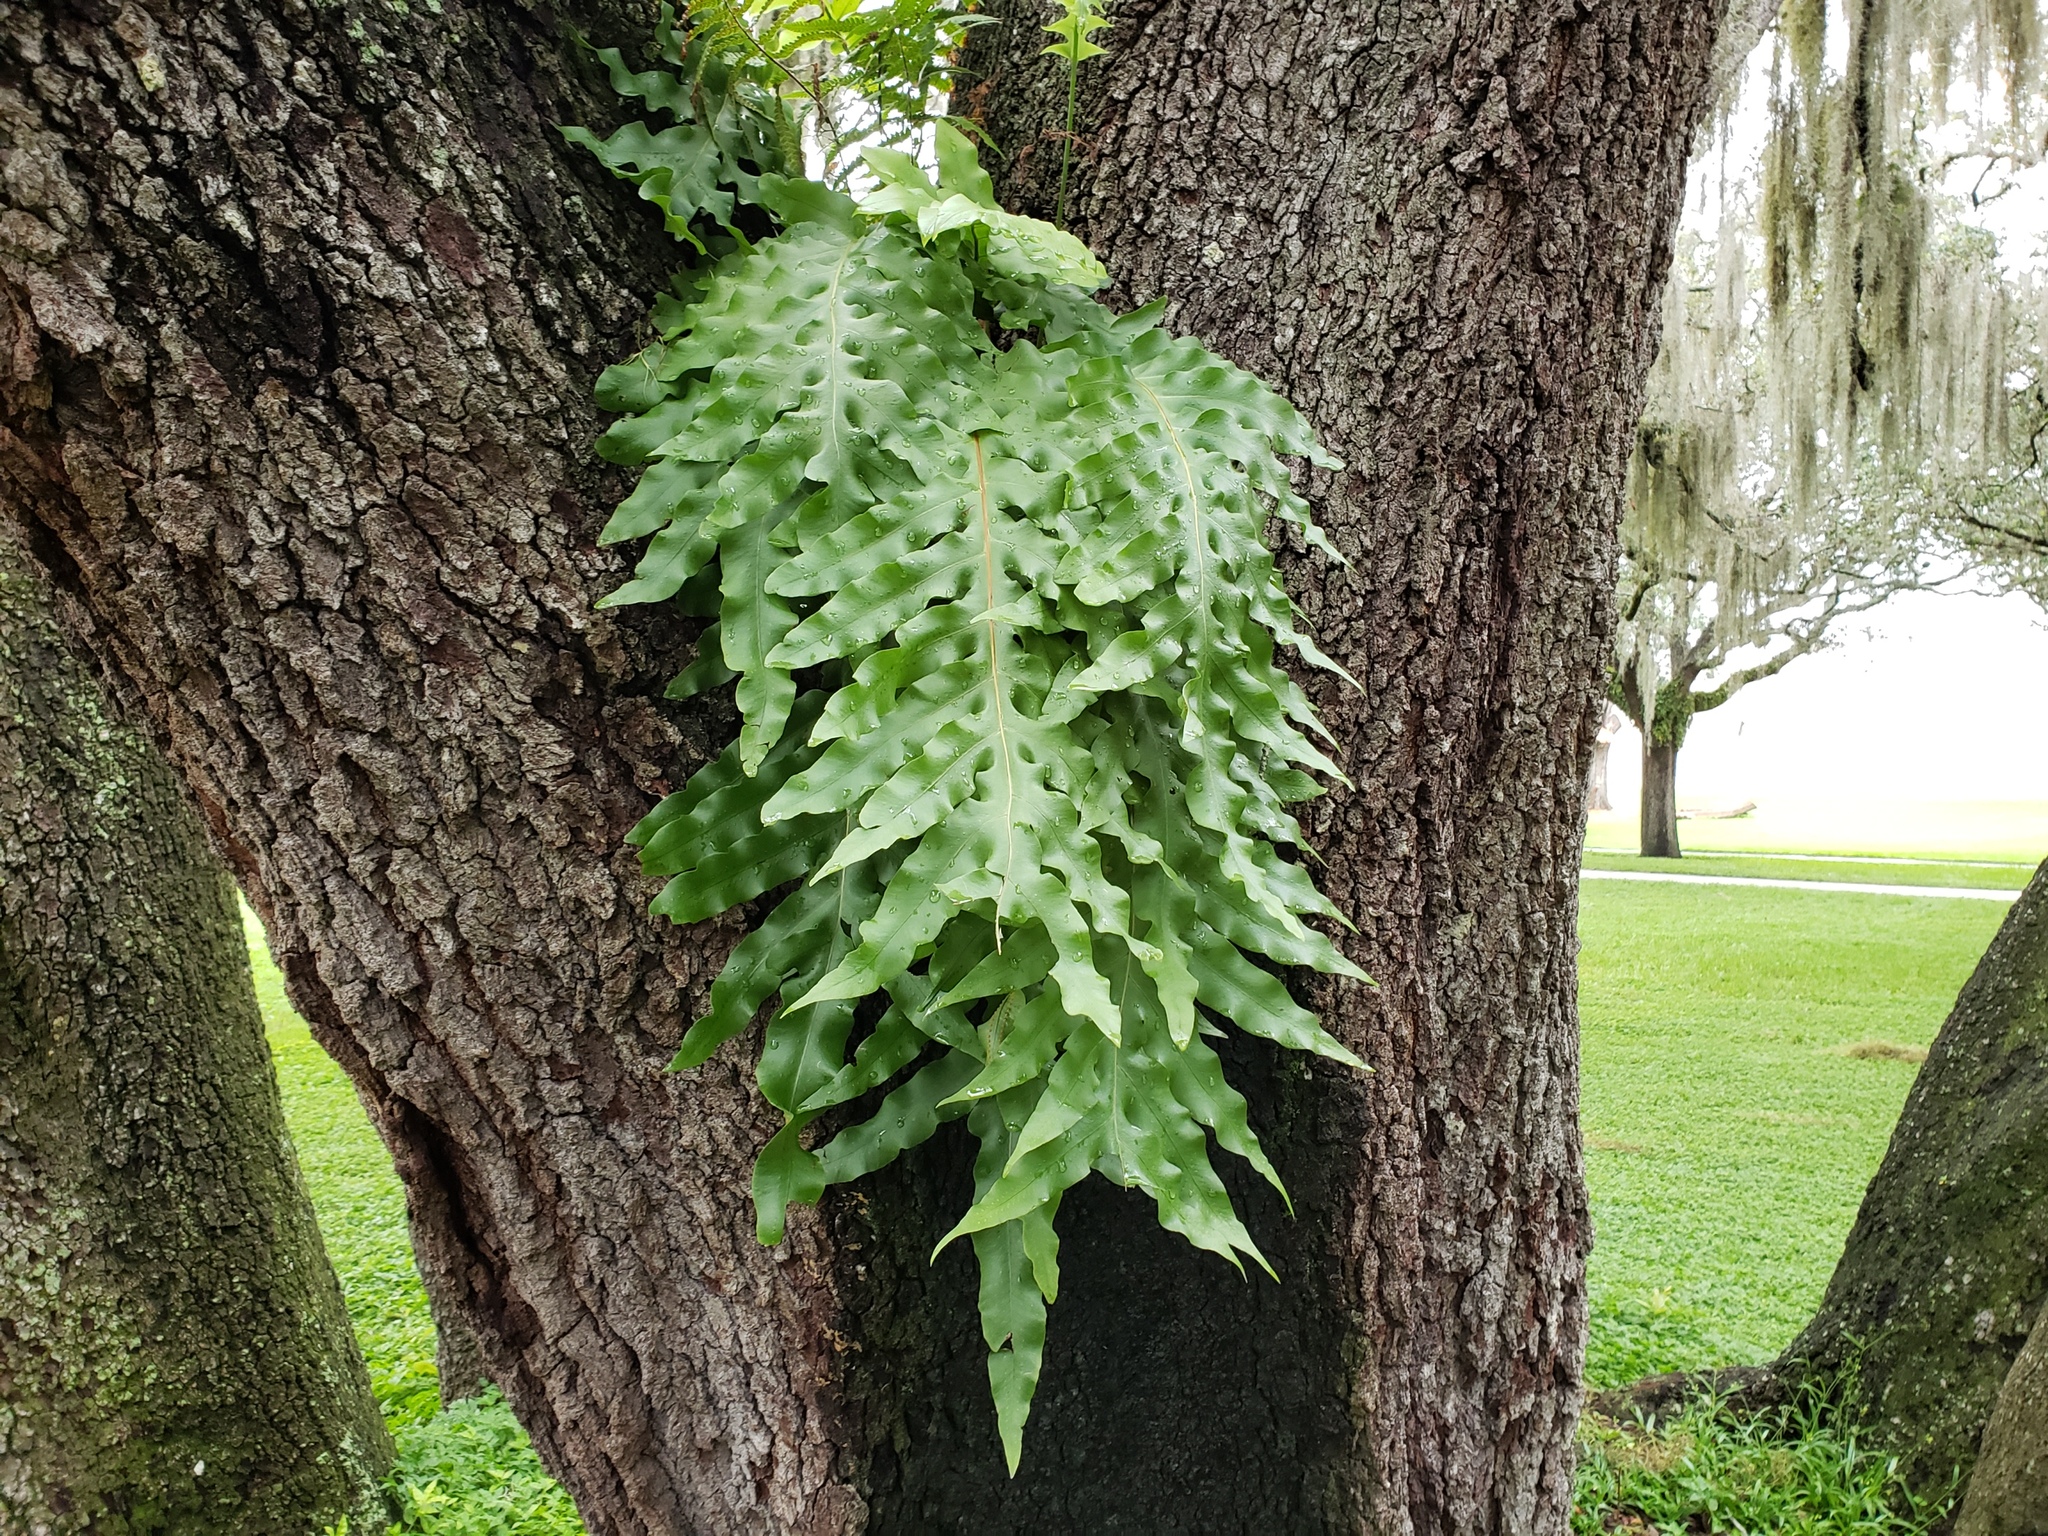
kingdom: Plantae
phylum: Tracheophyta
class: Polypodiopsida
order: Polypodiales
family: Polypodiaceae
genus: Phlebodium
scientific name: Phlebodium aureum
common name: Gold-foot fern
